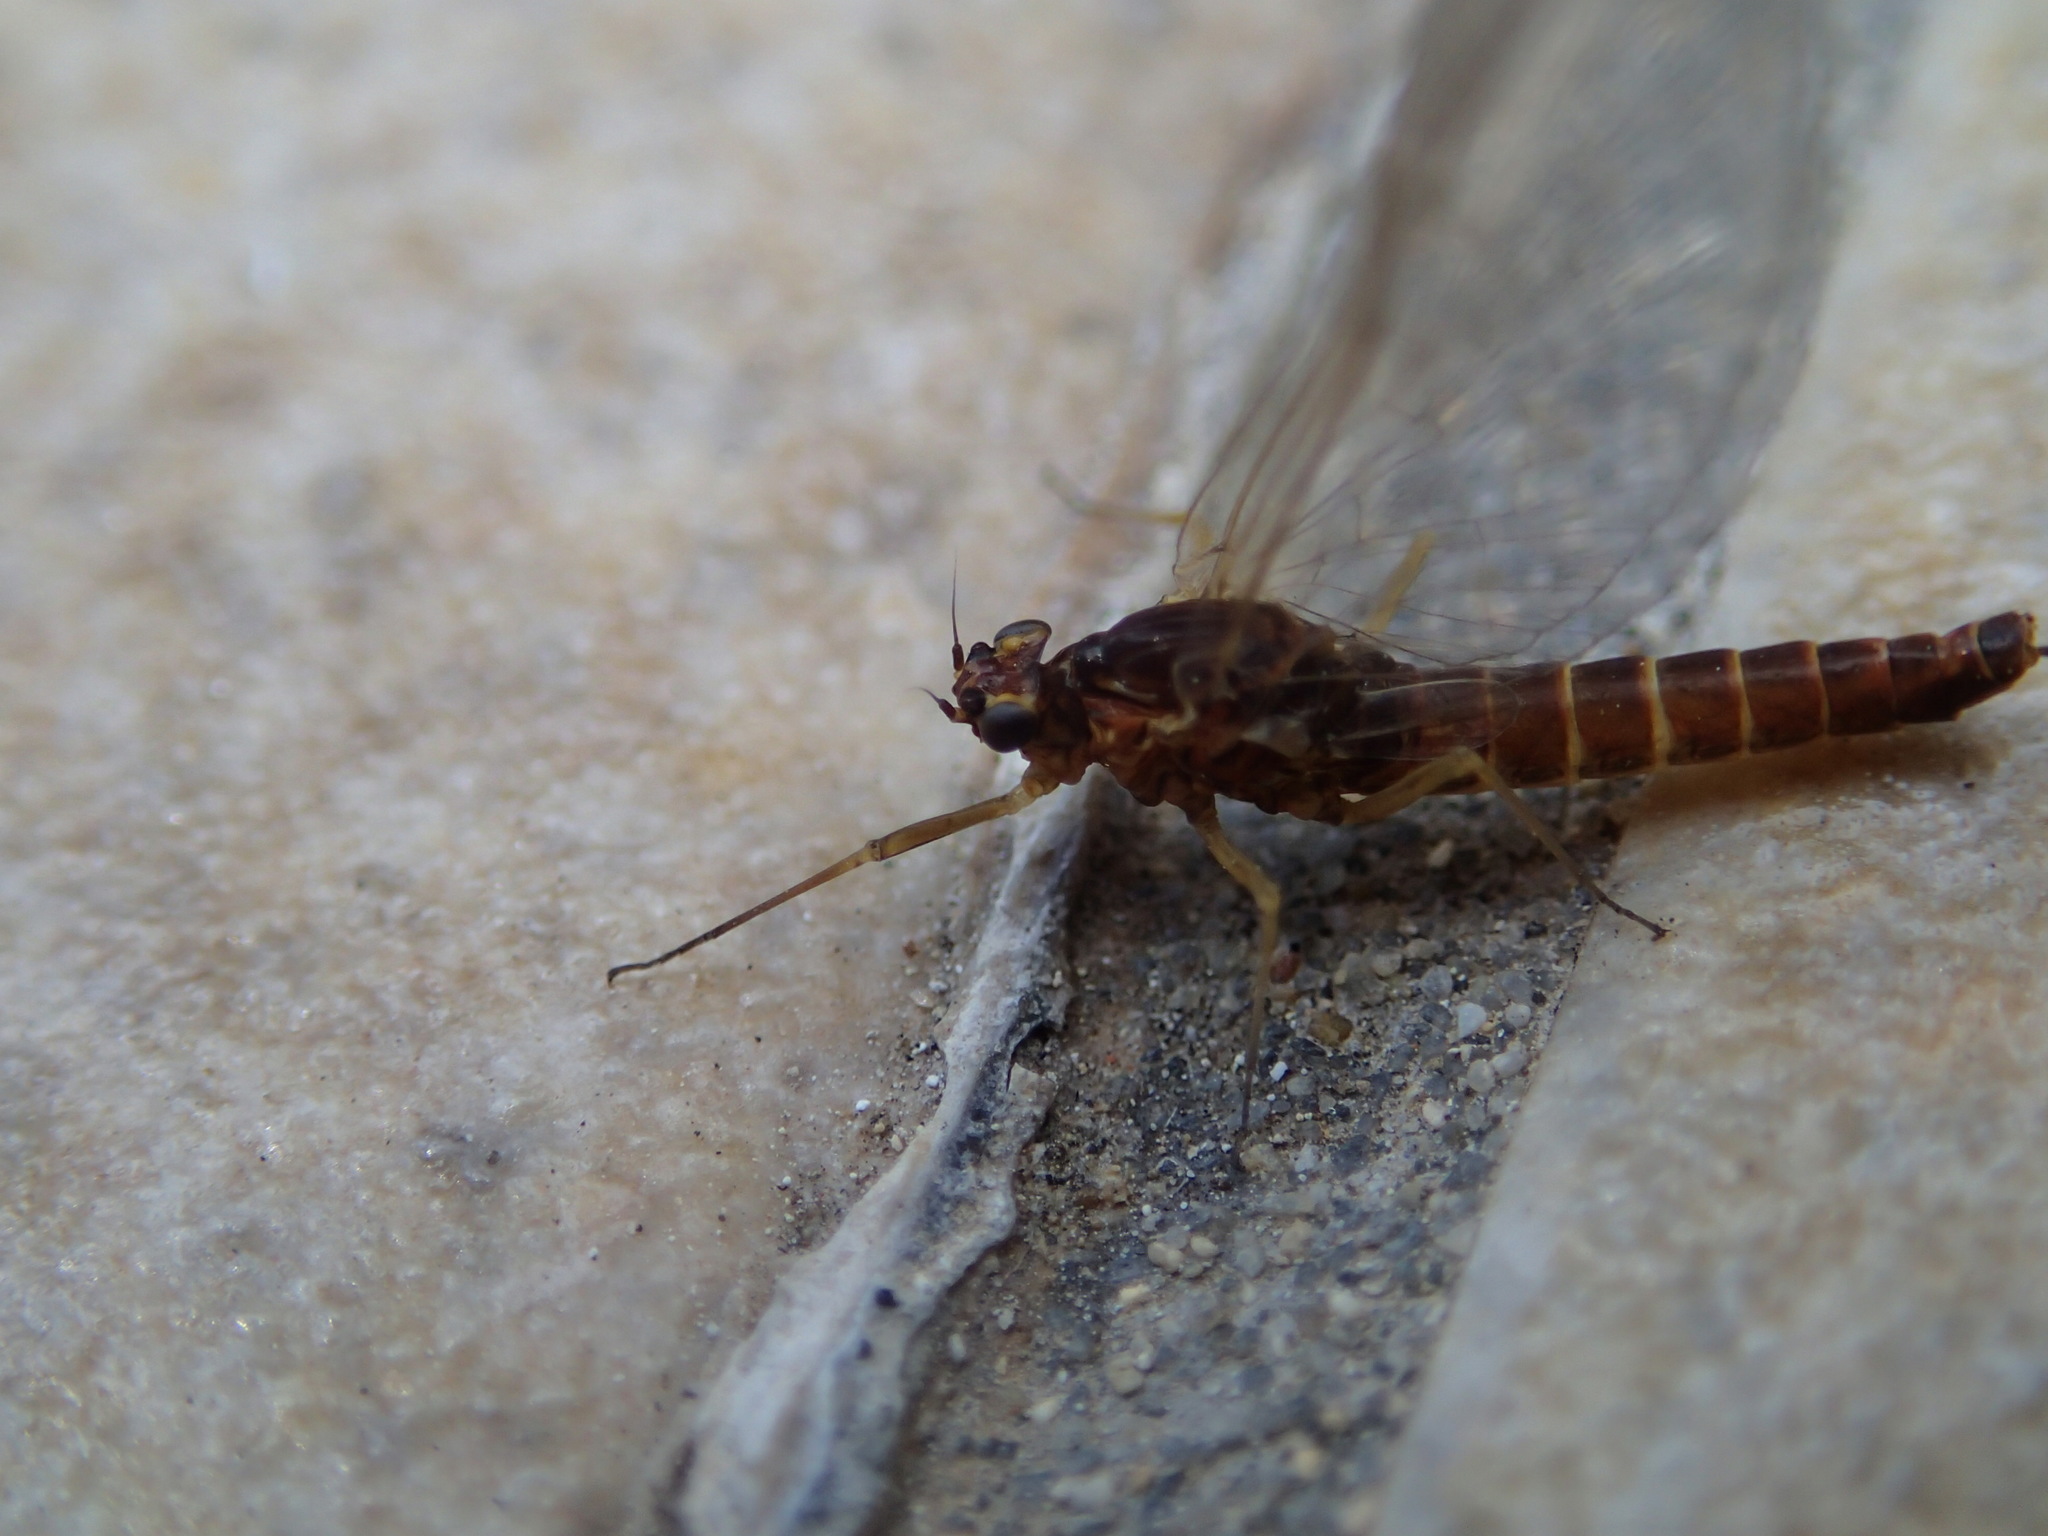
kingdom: Animalia
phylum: Arthropoda
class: Insecta
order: Ephemeroptera
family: Baetidae
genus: Baetis
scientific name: Baetis rhodani
